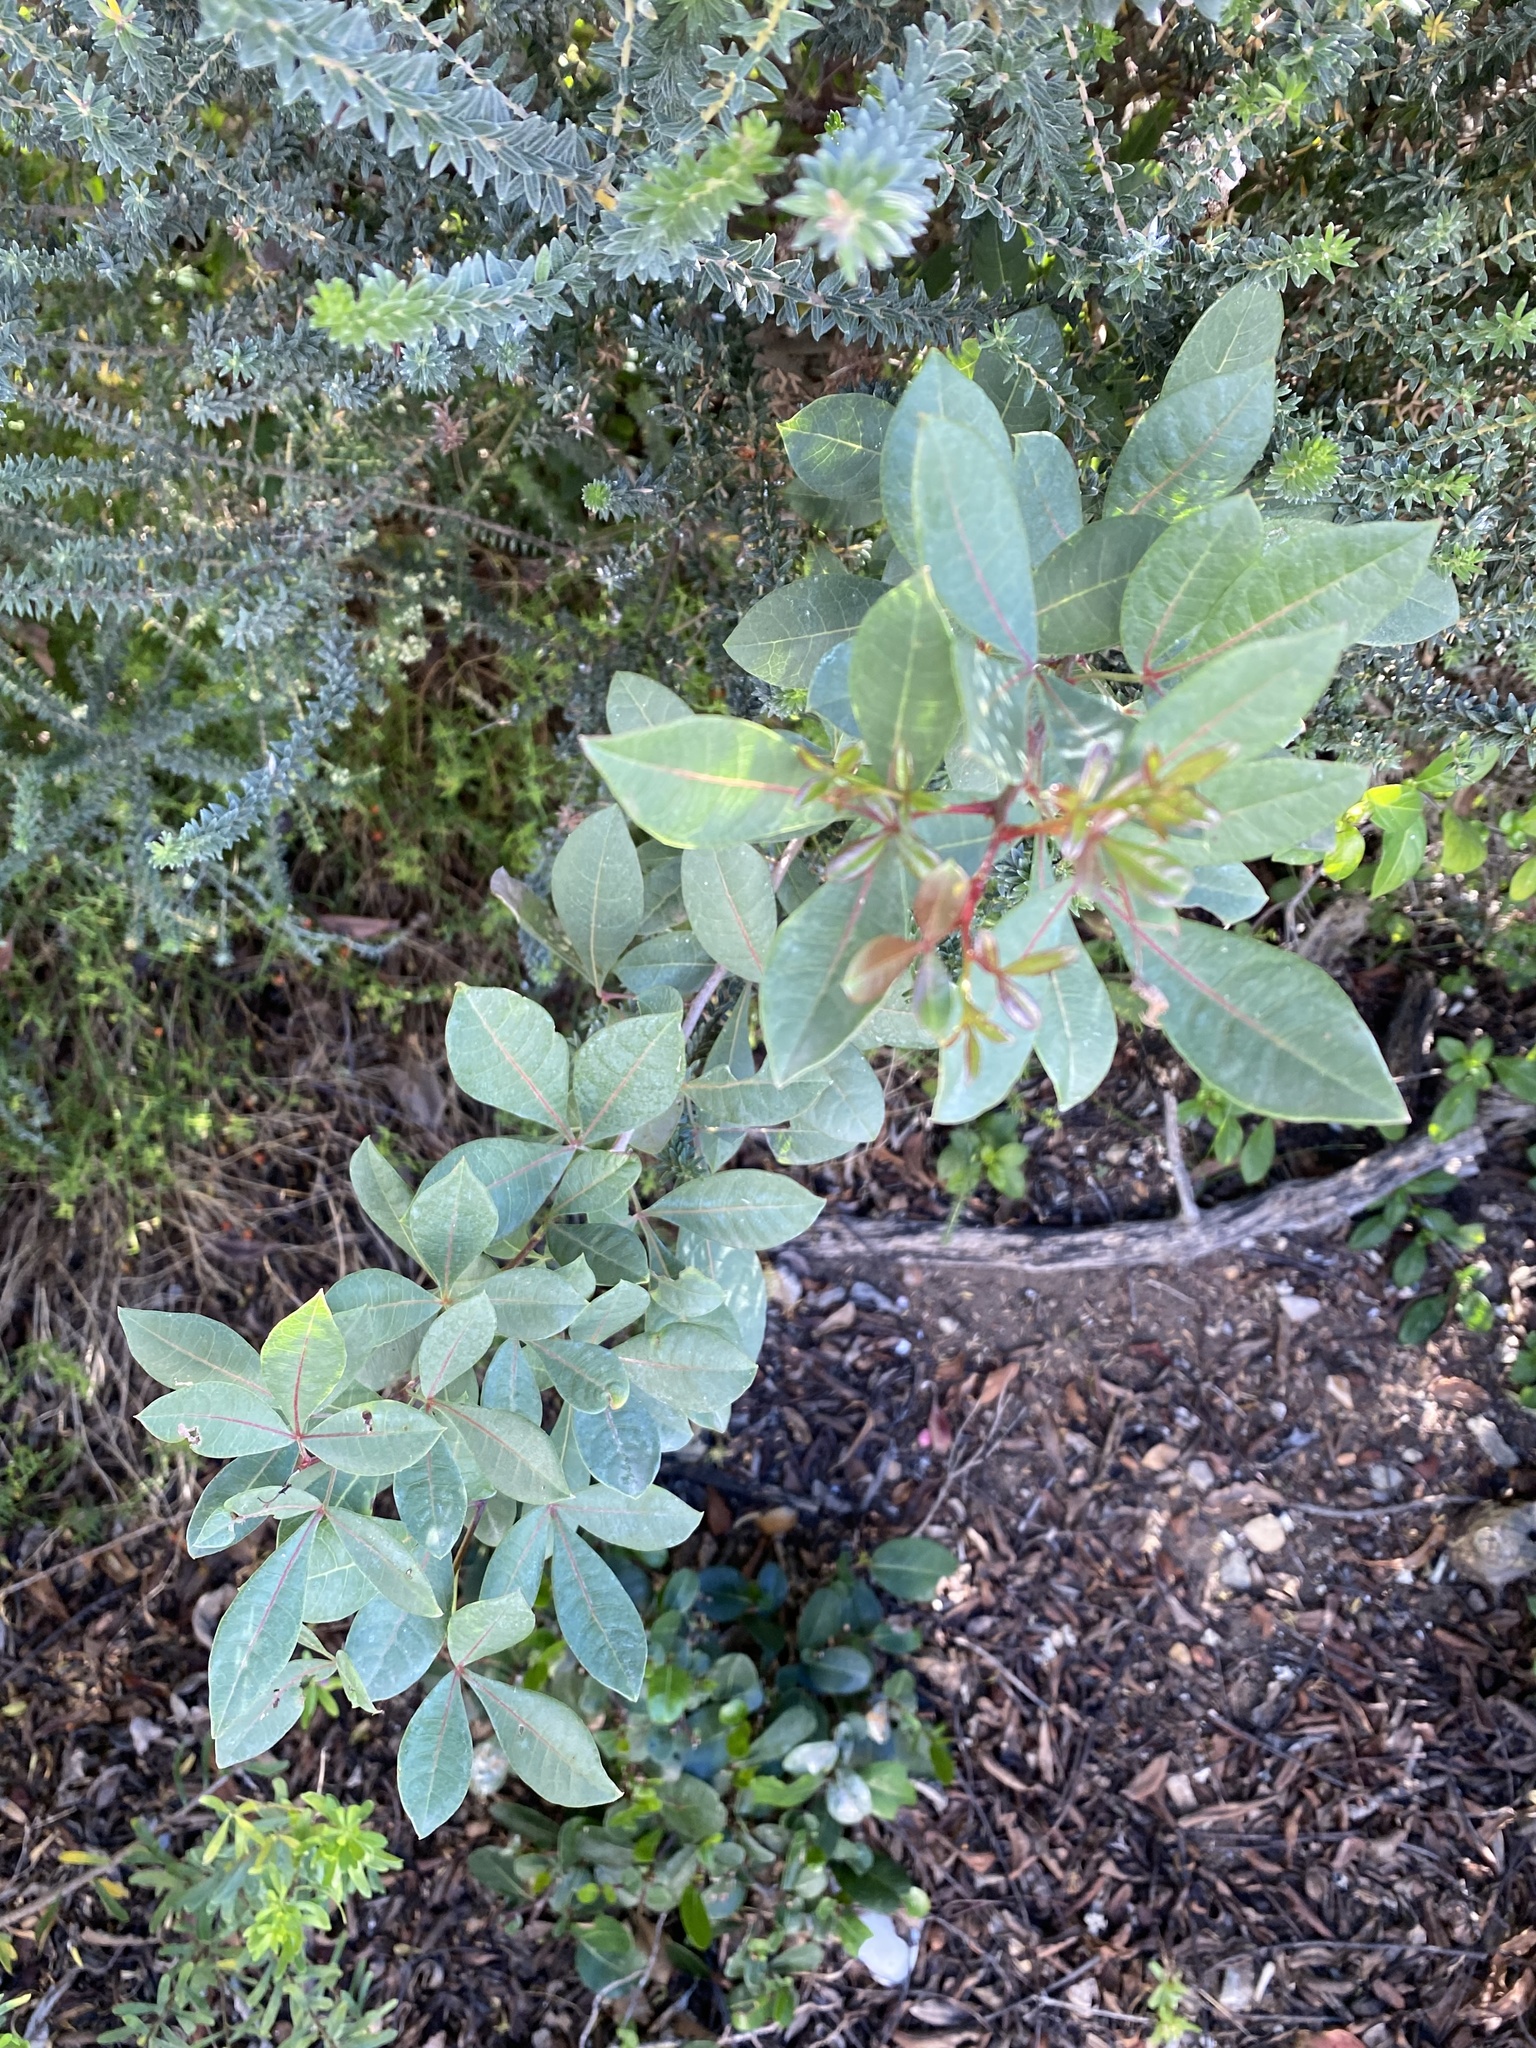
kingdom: Plantae
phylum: Tracheophyta
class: Magnoliopsida
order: Sapindales
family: Anacardiaceae
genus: Searsia
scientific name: Searsia laevigata
